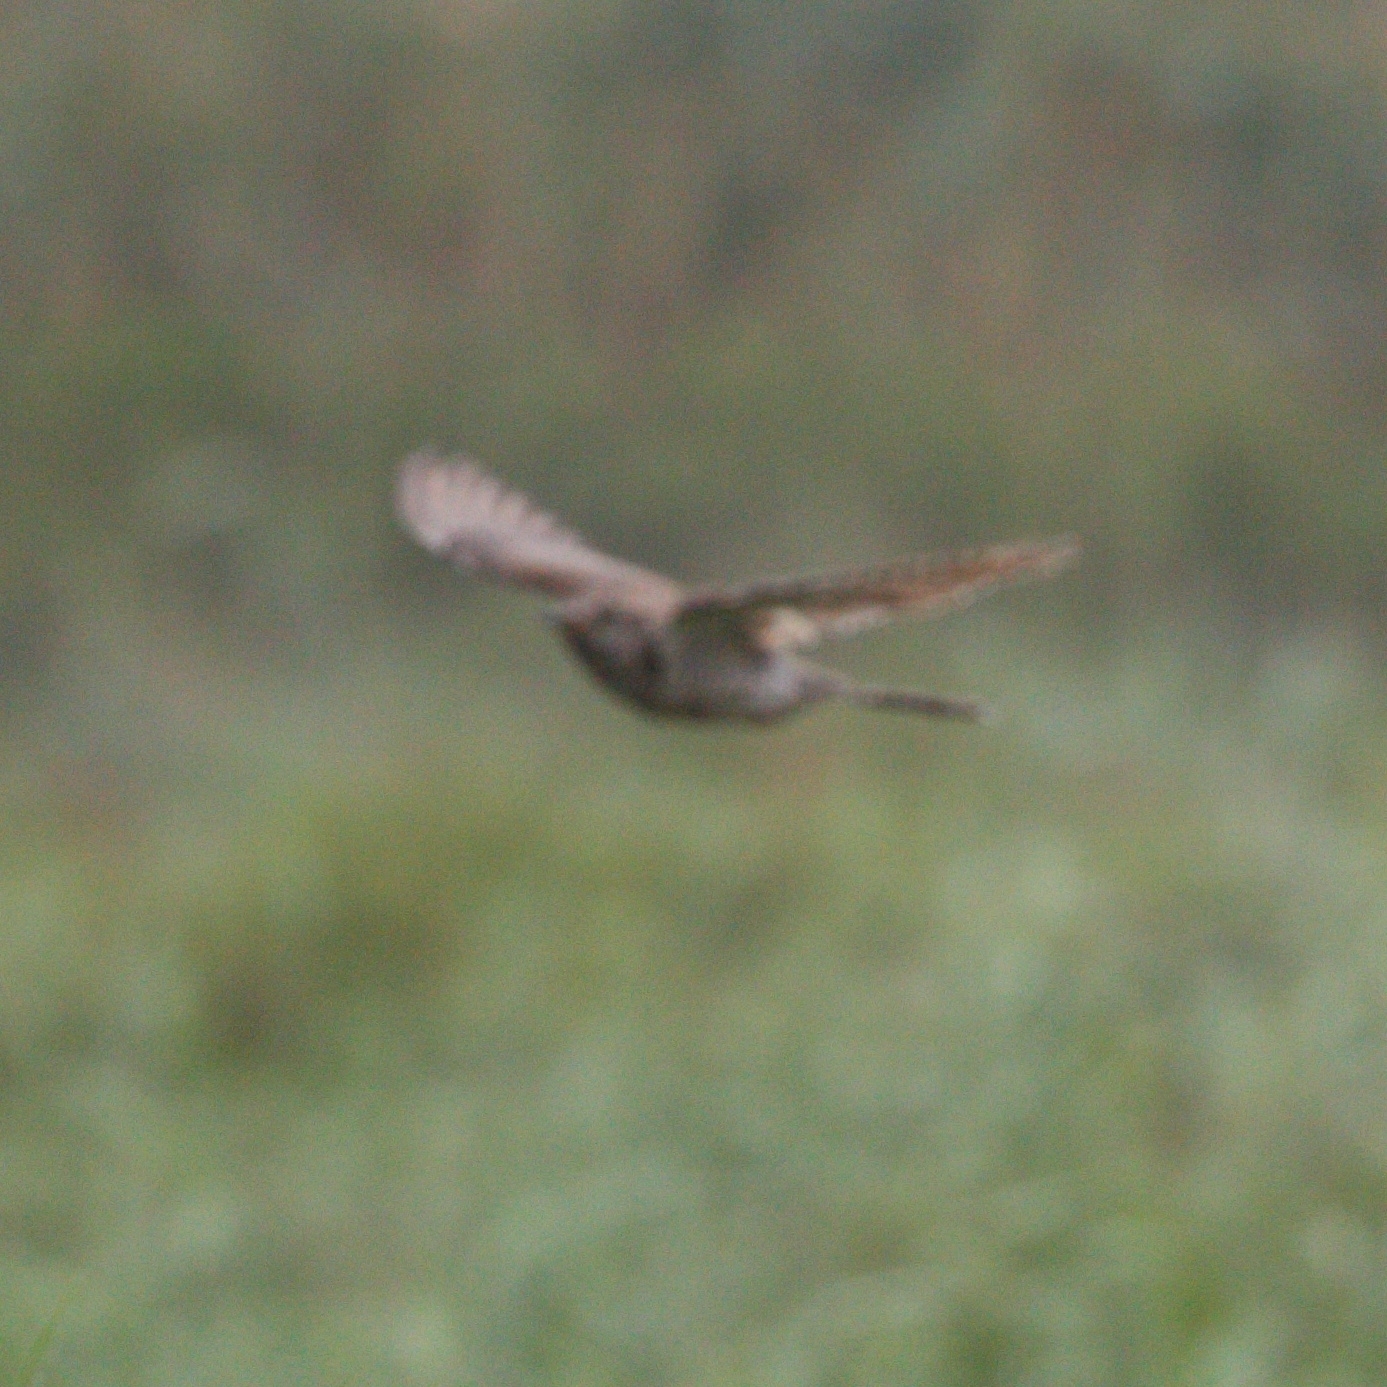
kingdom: Animalia
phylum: Chordata
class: Aves
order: Cuculiformes
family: Cuculidae
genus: Cuculus
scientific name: Cuculus canorus
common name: Common cuckoo
